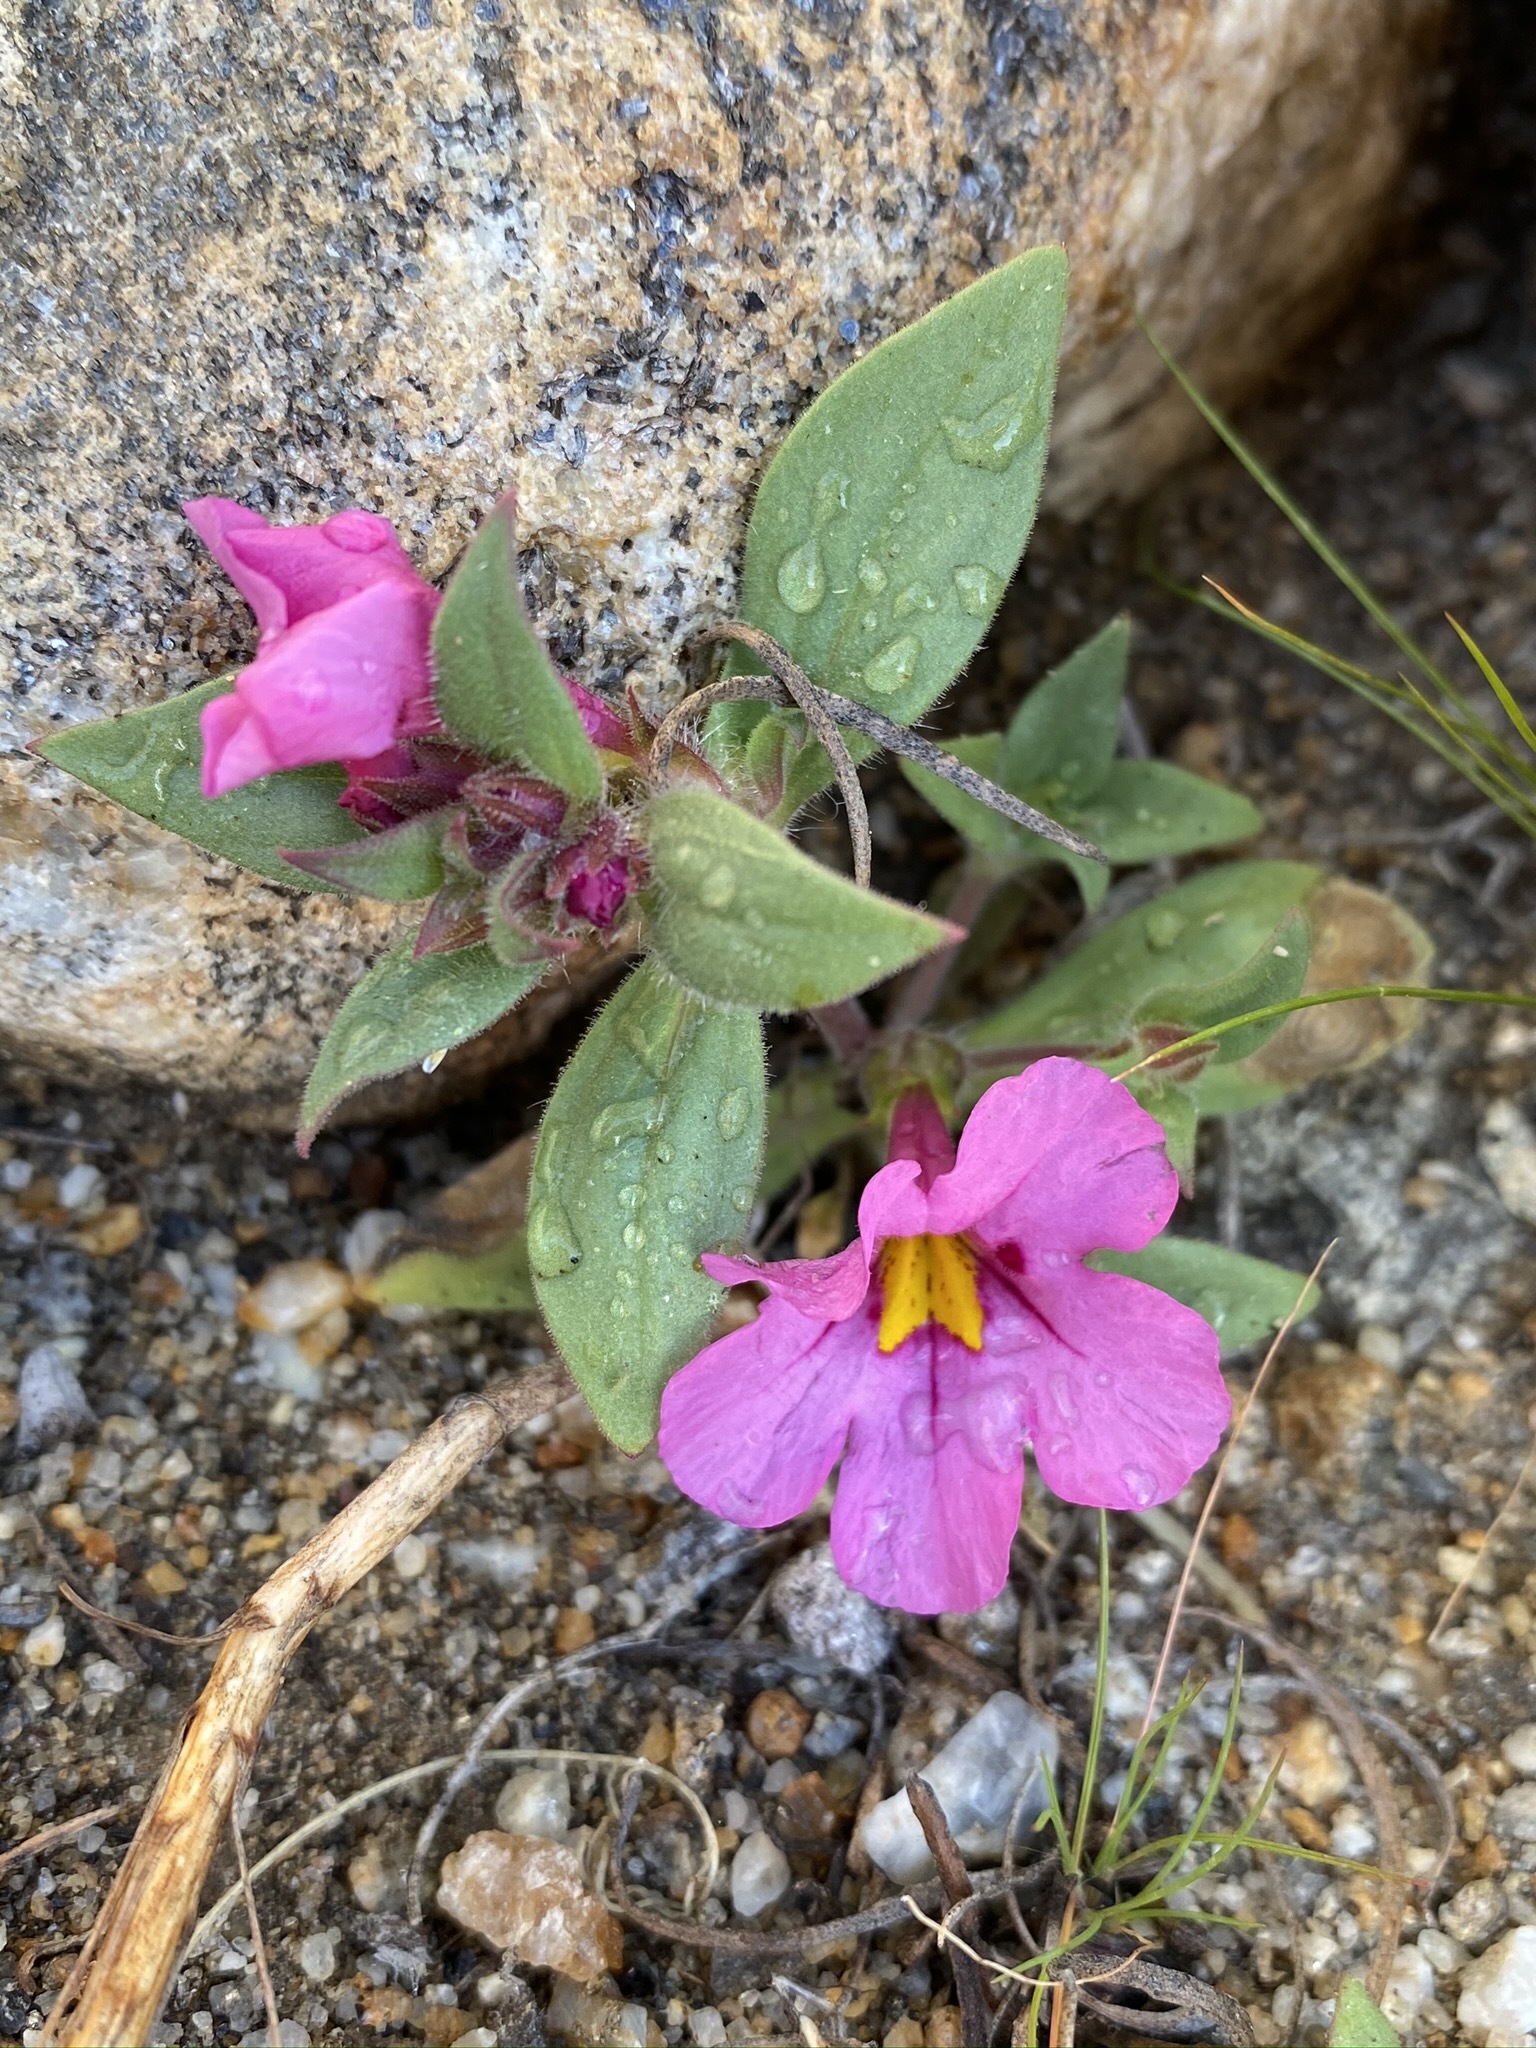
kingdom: Plantae
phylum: Tracheophyta
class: Magnoliopsida
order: Lamiales
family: Phrymaceae
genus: Diplacus
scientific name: Diplacus bigelovii
